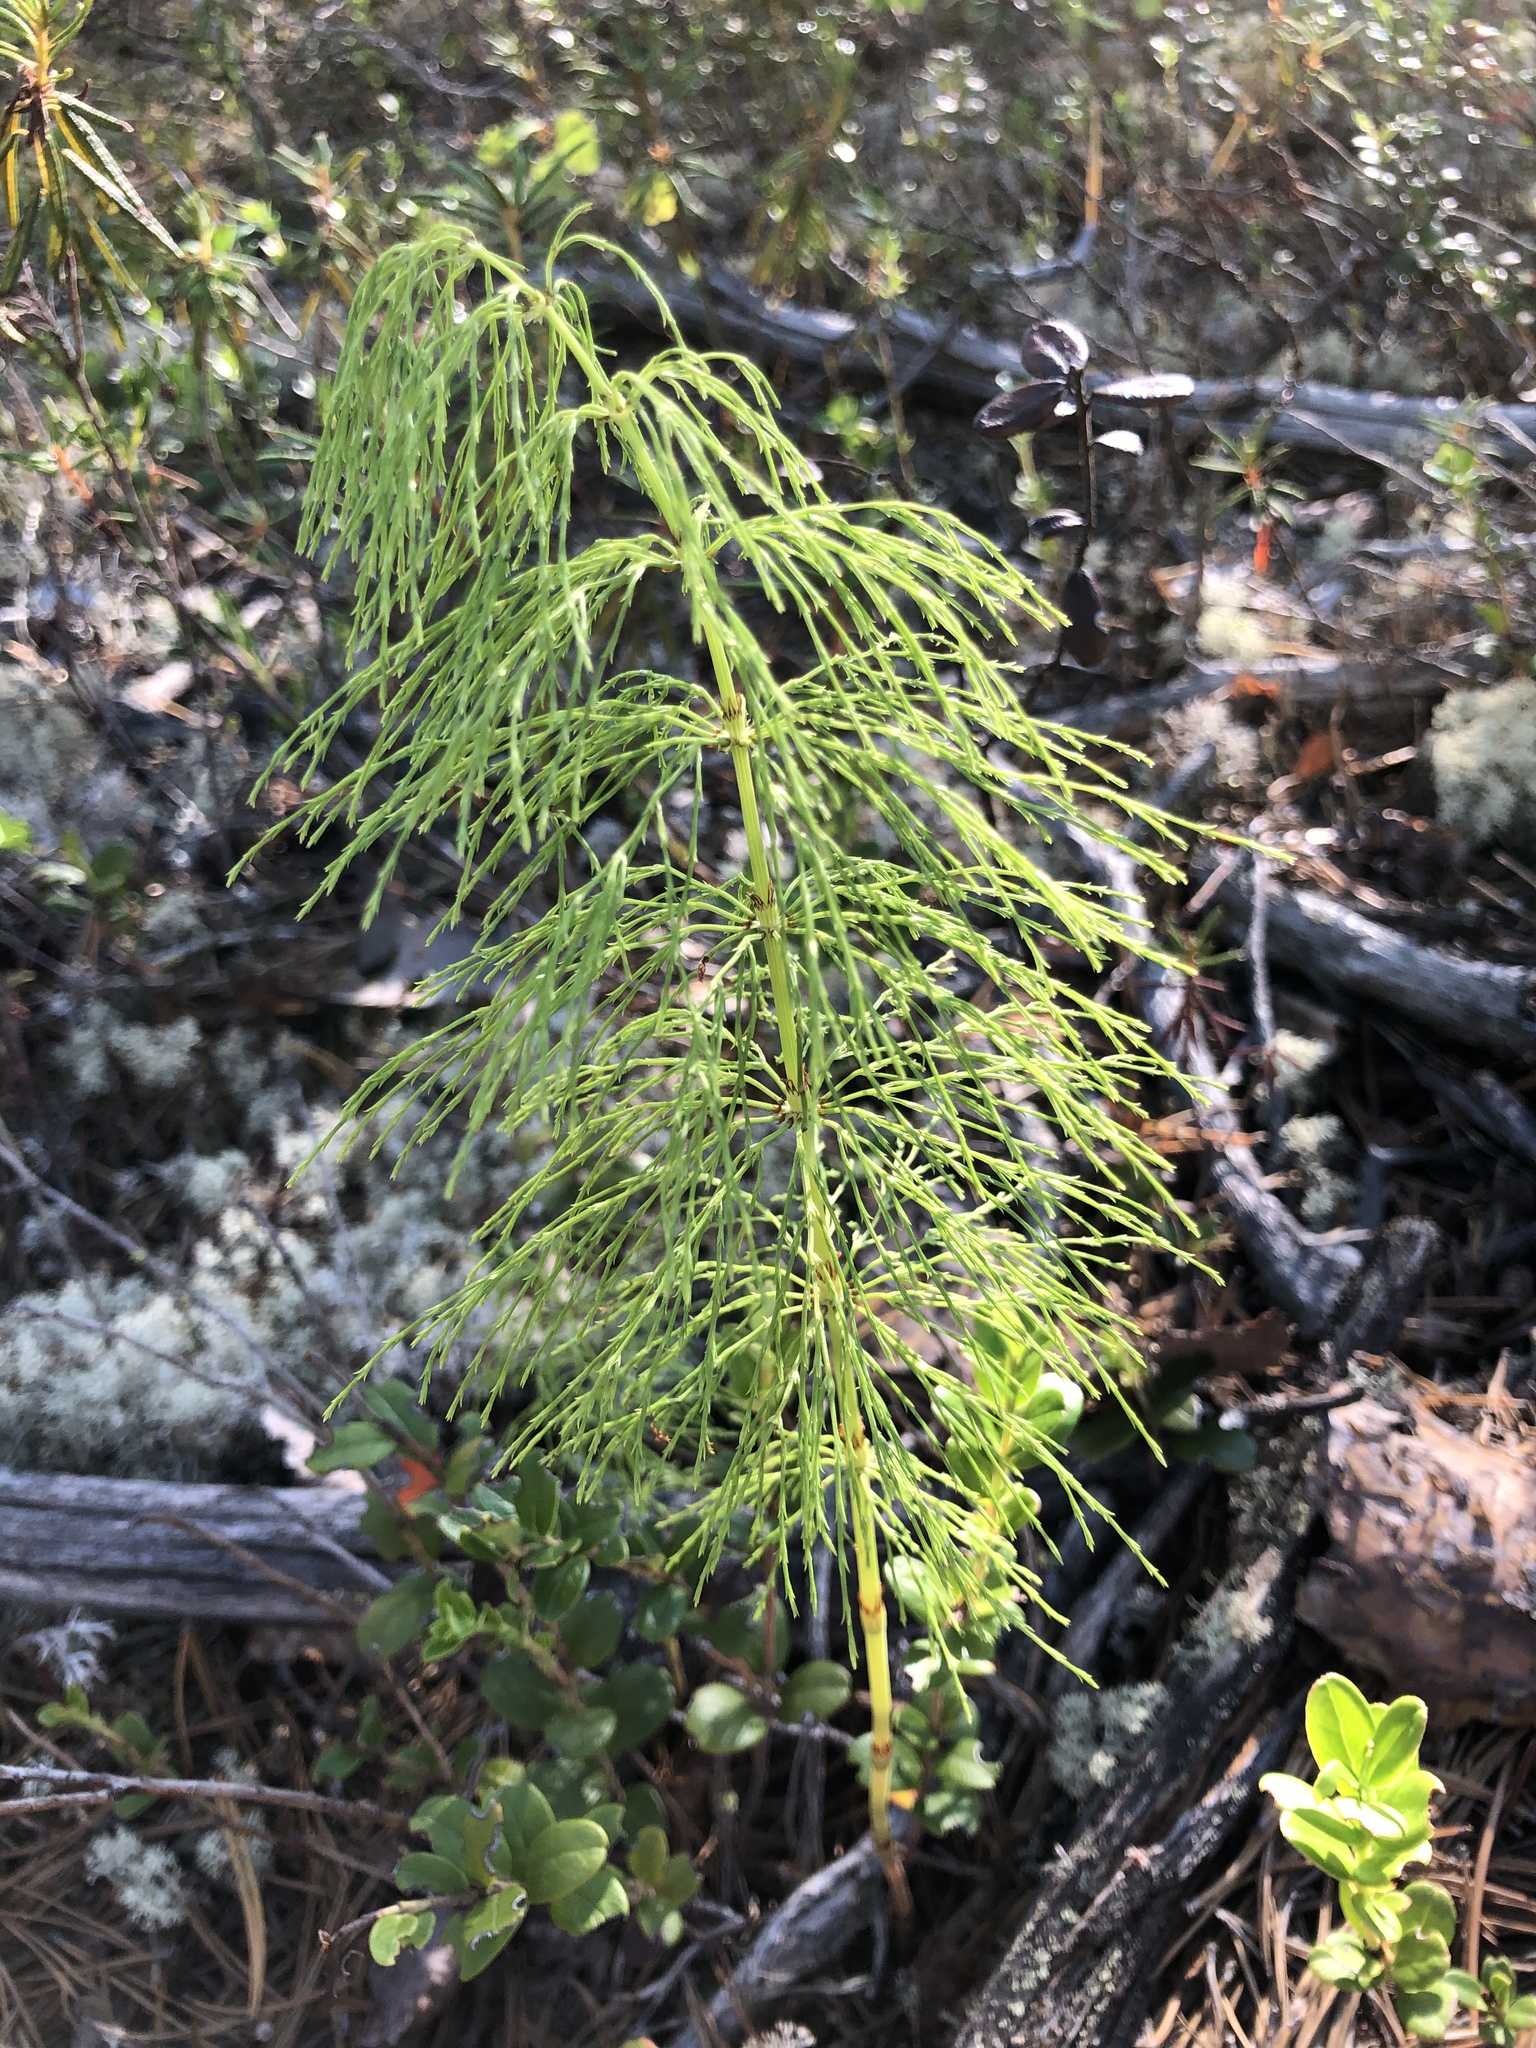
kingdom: Plantae
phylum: Tracheophyta
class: Polypodiopsida
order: Equisetales
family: Equisetaceae
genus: Equisetum
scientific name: Equisetum sylvaticum
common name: Wood horsetail
